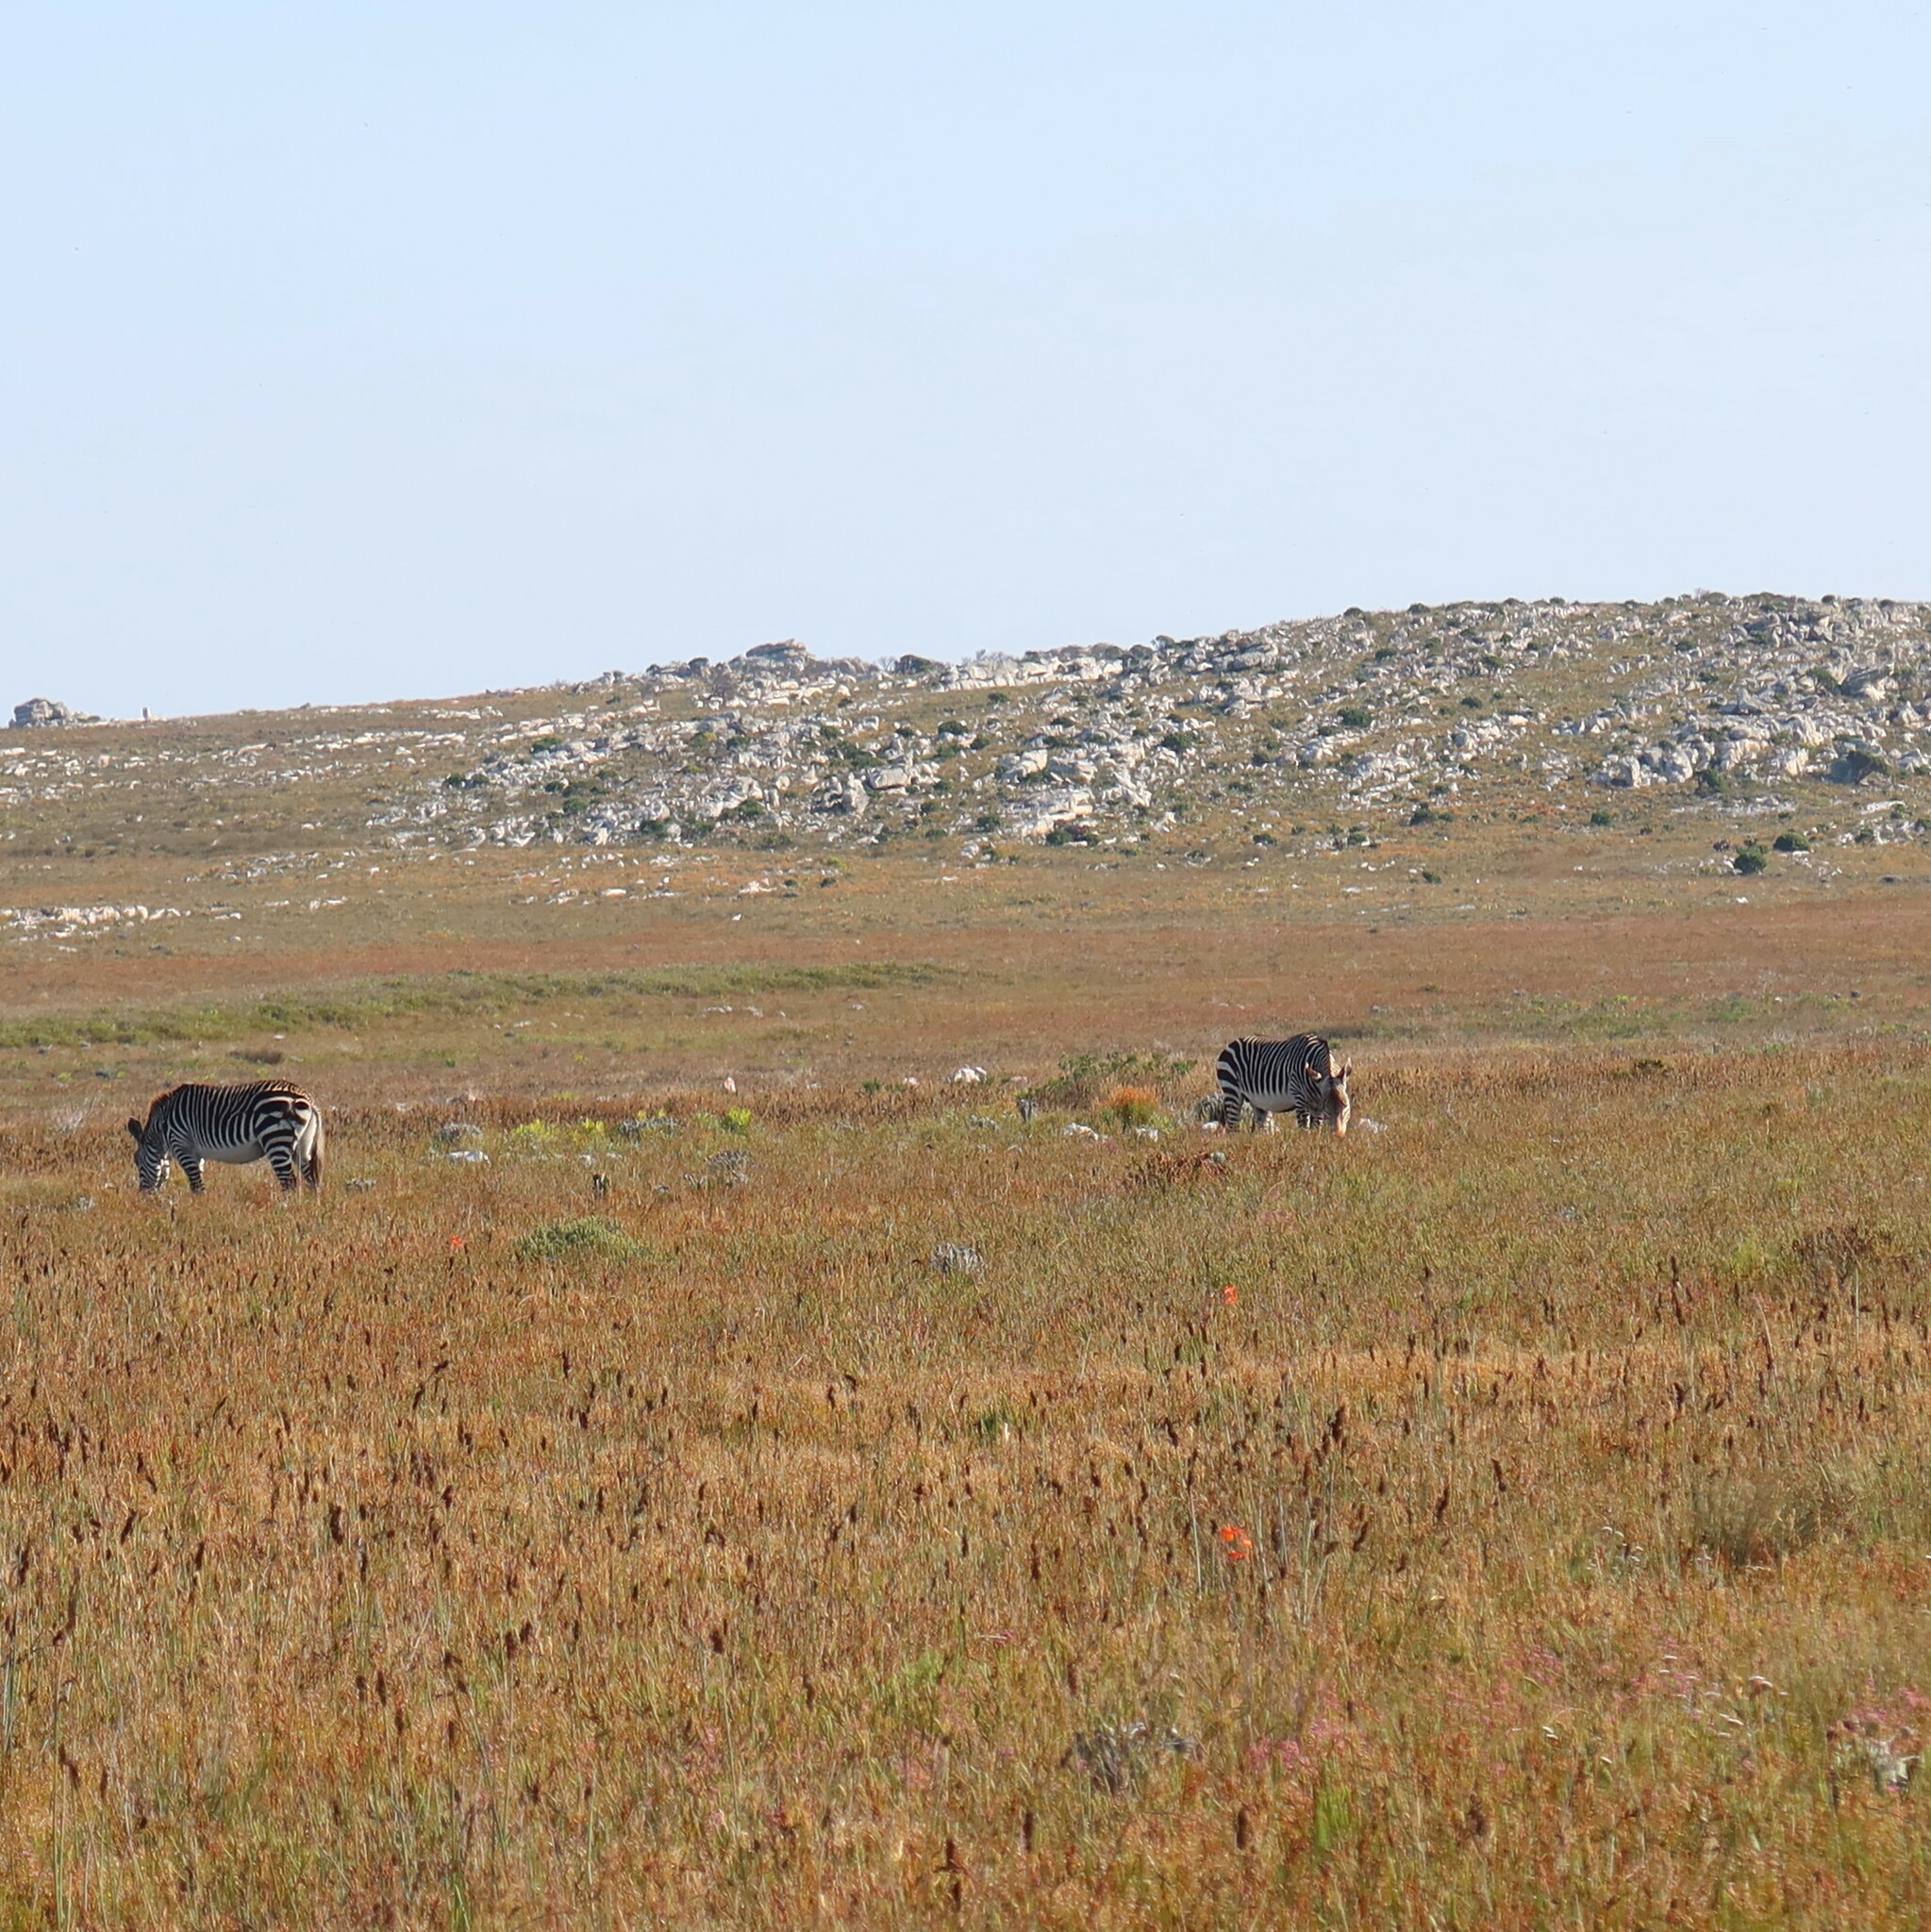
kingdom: Animalia
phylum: Chordata
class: Mammalia
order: Perissodactyla
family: Equidae
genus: Equus
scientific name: Equus zebra
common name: Mountain zebra
